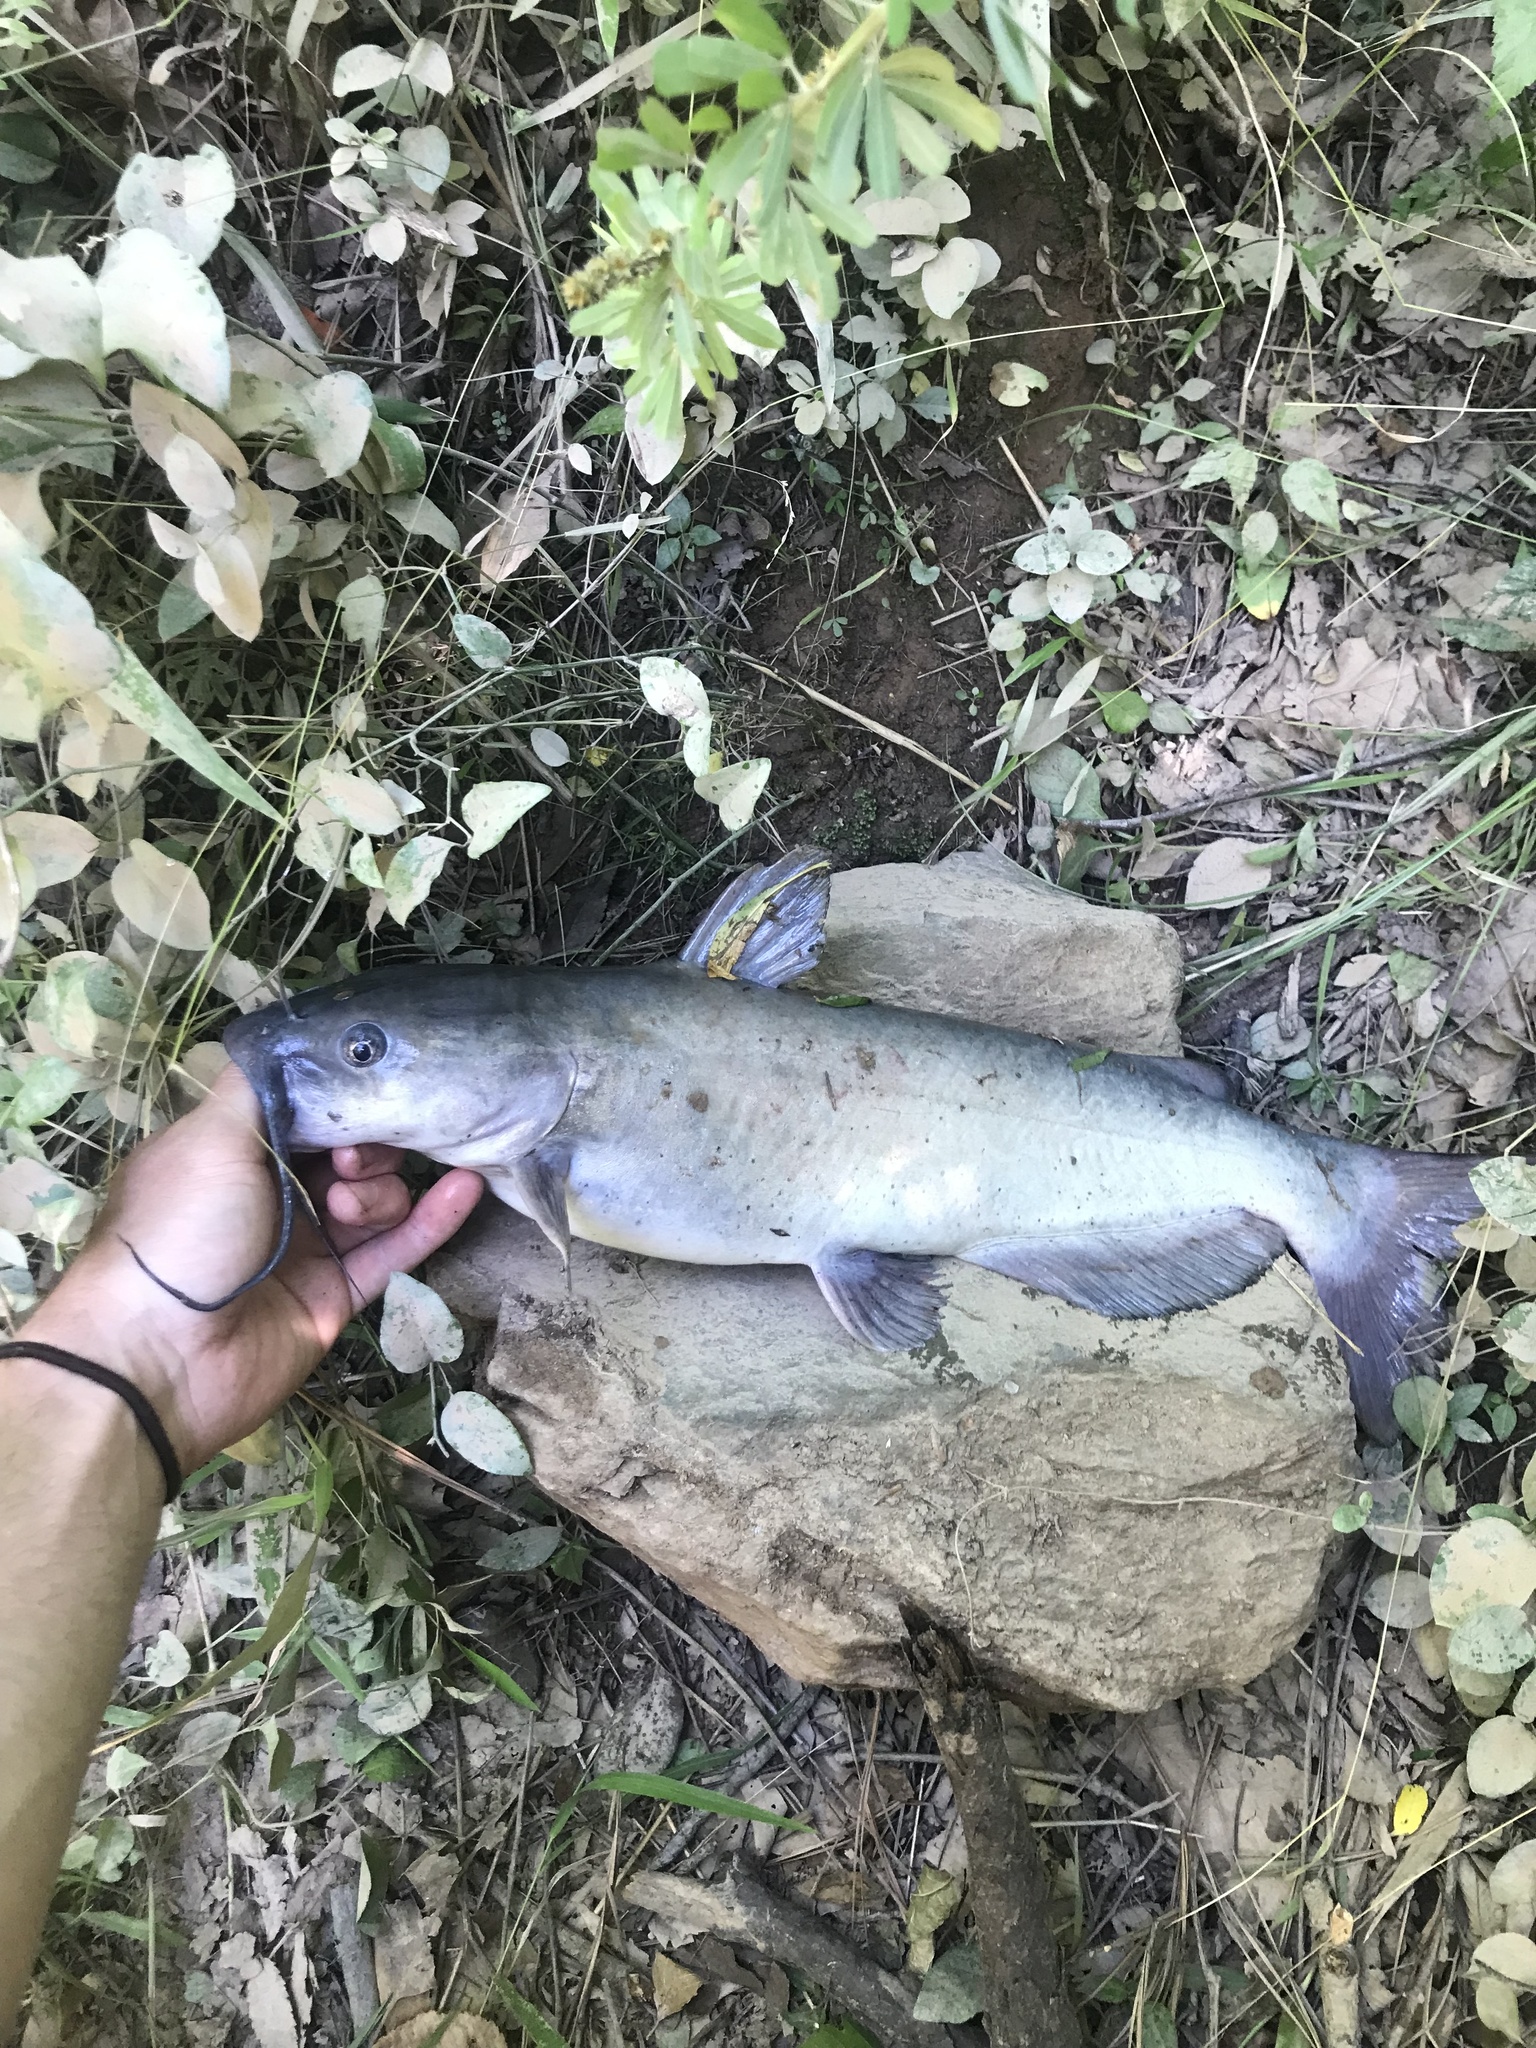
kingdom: Animalia
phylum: Chordata
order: Siluriformes
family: Ictaluridae
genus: Ictalurus
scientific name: Ictalurus punctatus
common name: Channel catfish
